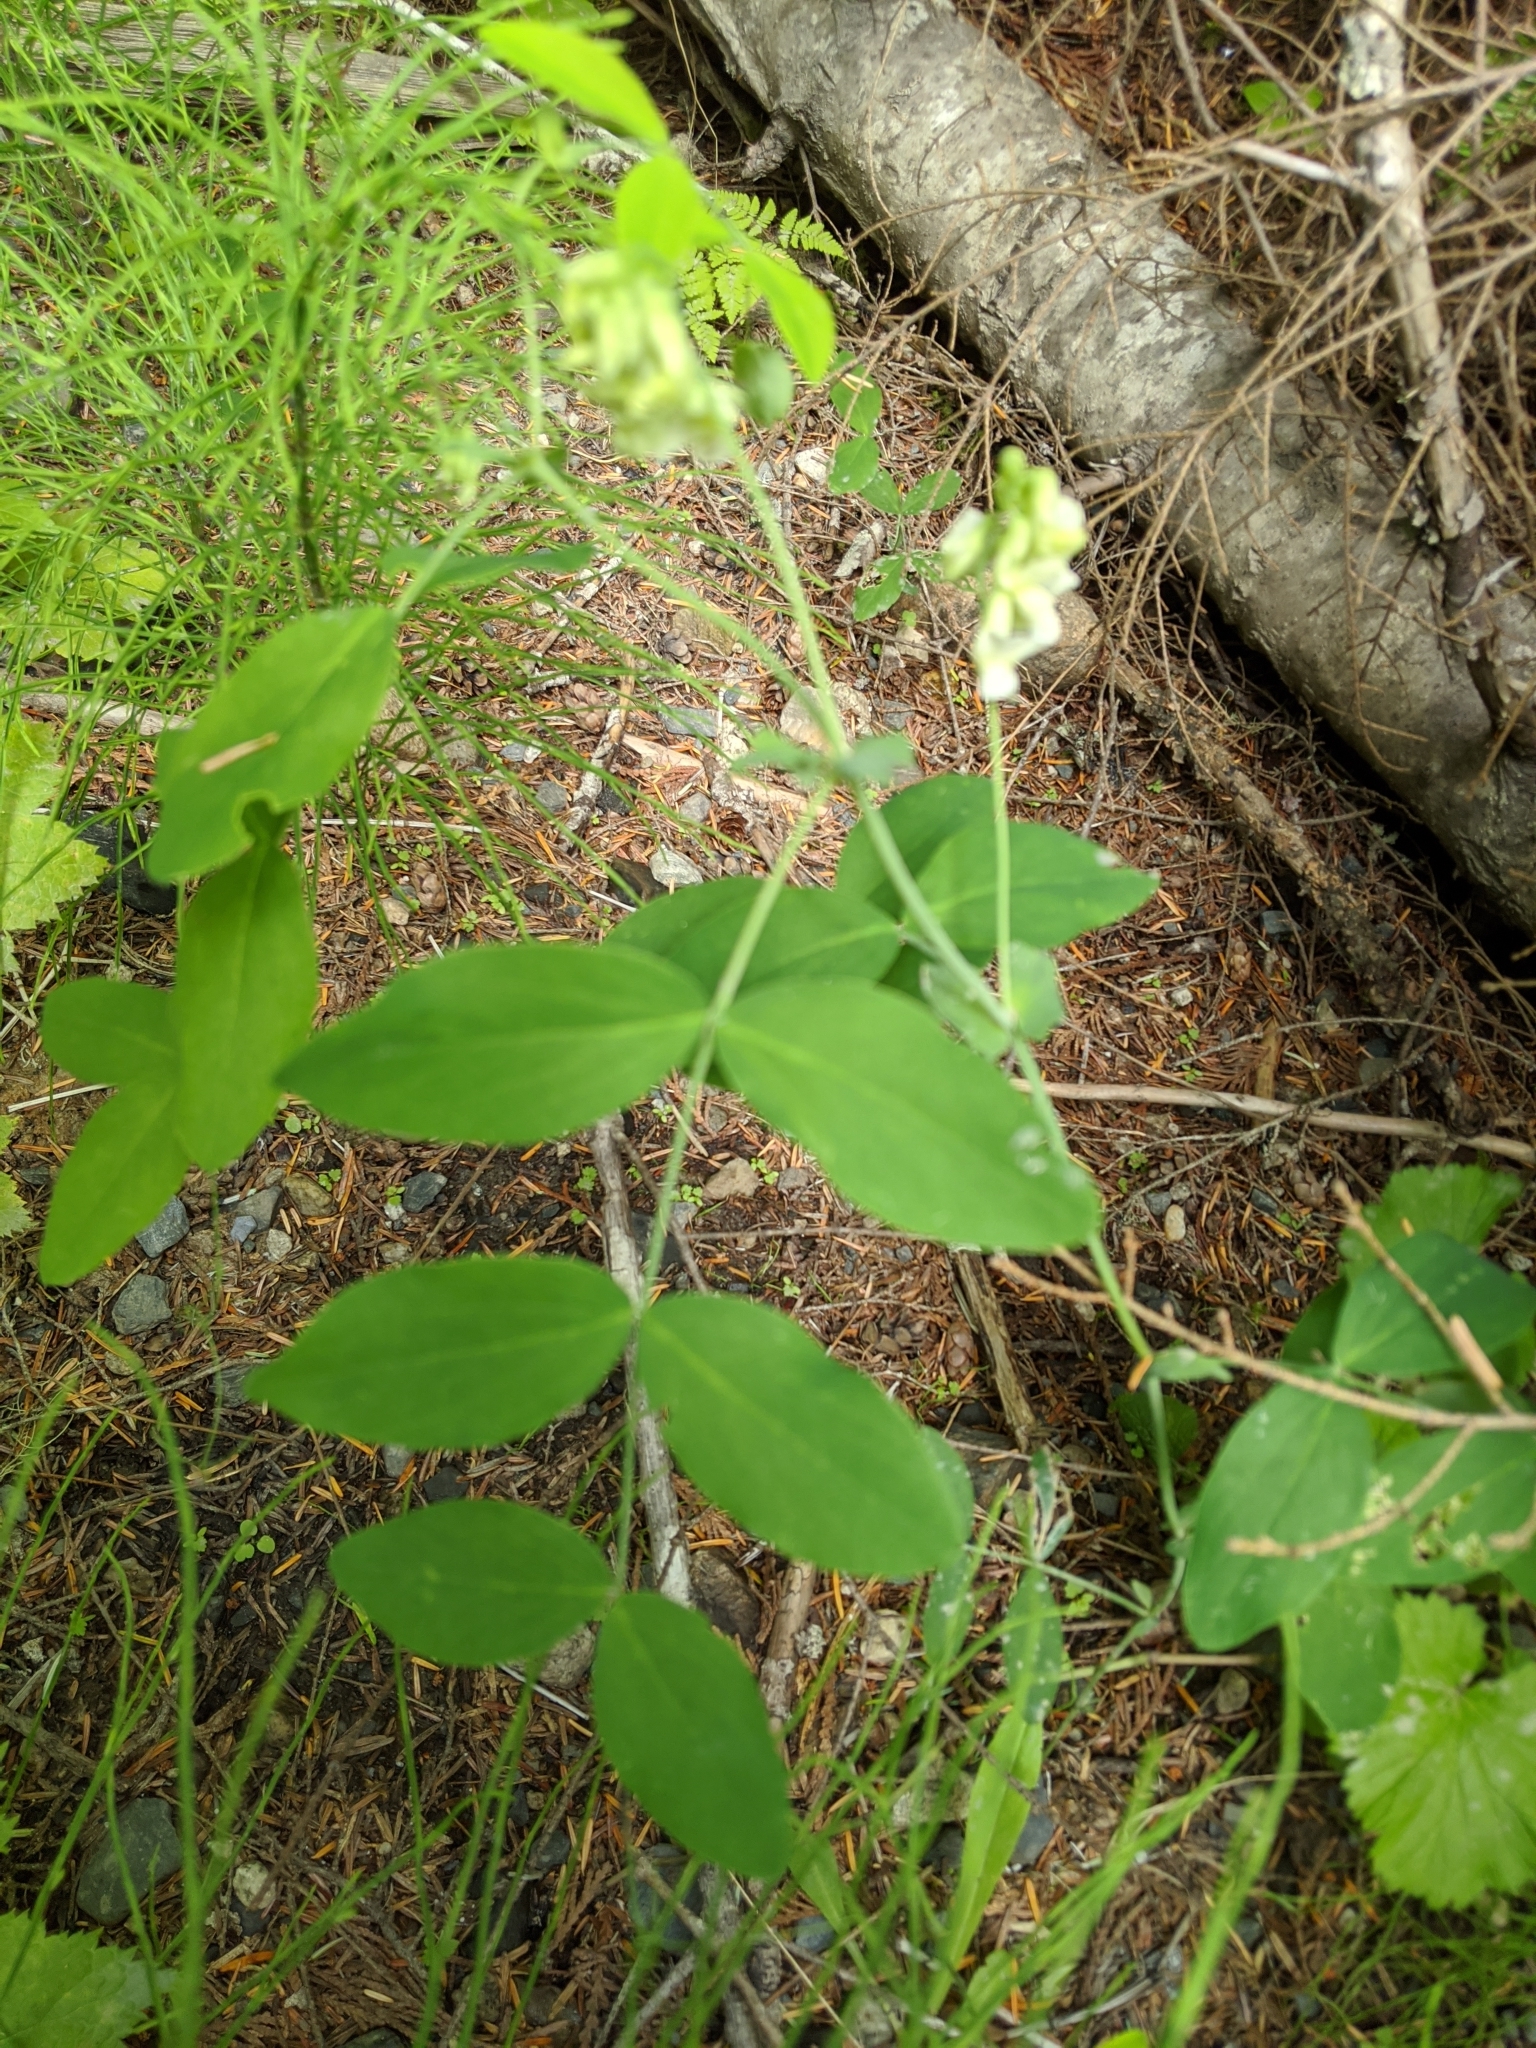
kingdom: Plantae
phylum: Tracheophyta
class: Magnoliopsida
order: Fabales
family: Fabaceae
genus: Lathyrus
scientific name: Lathyrus ochroleucus
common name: Pale vetchling
